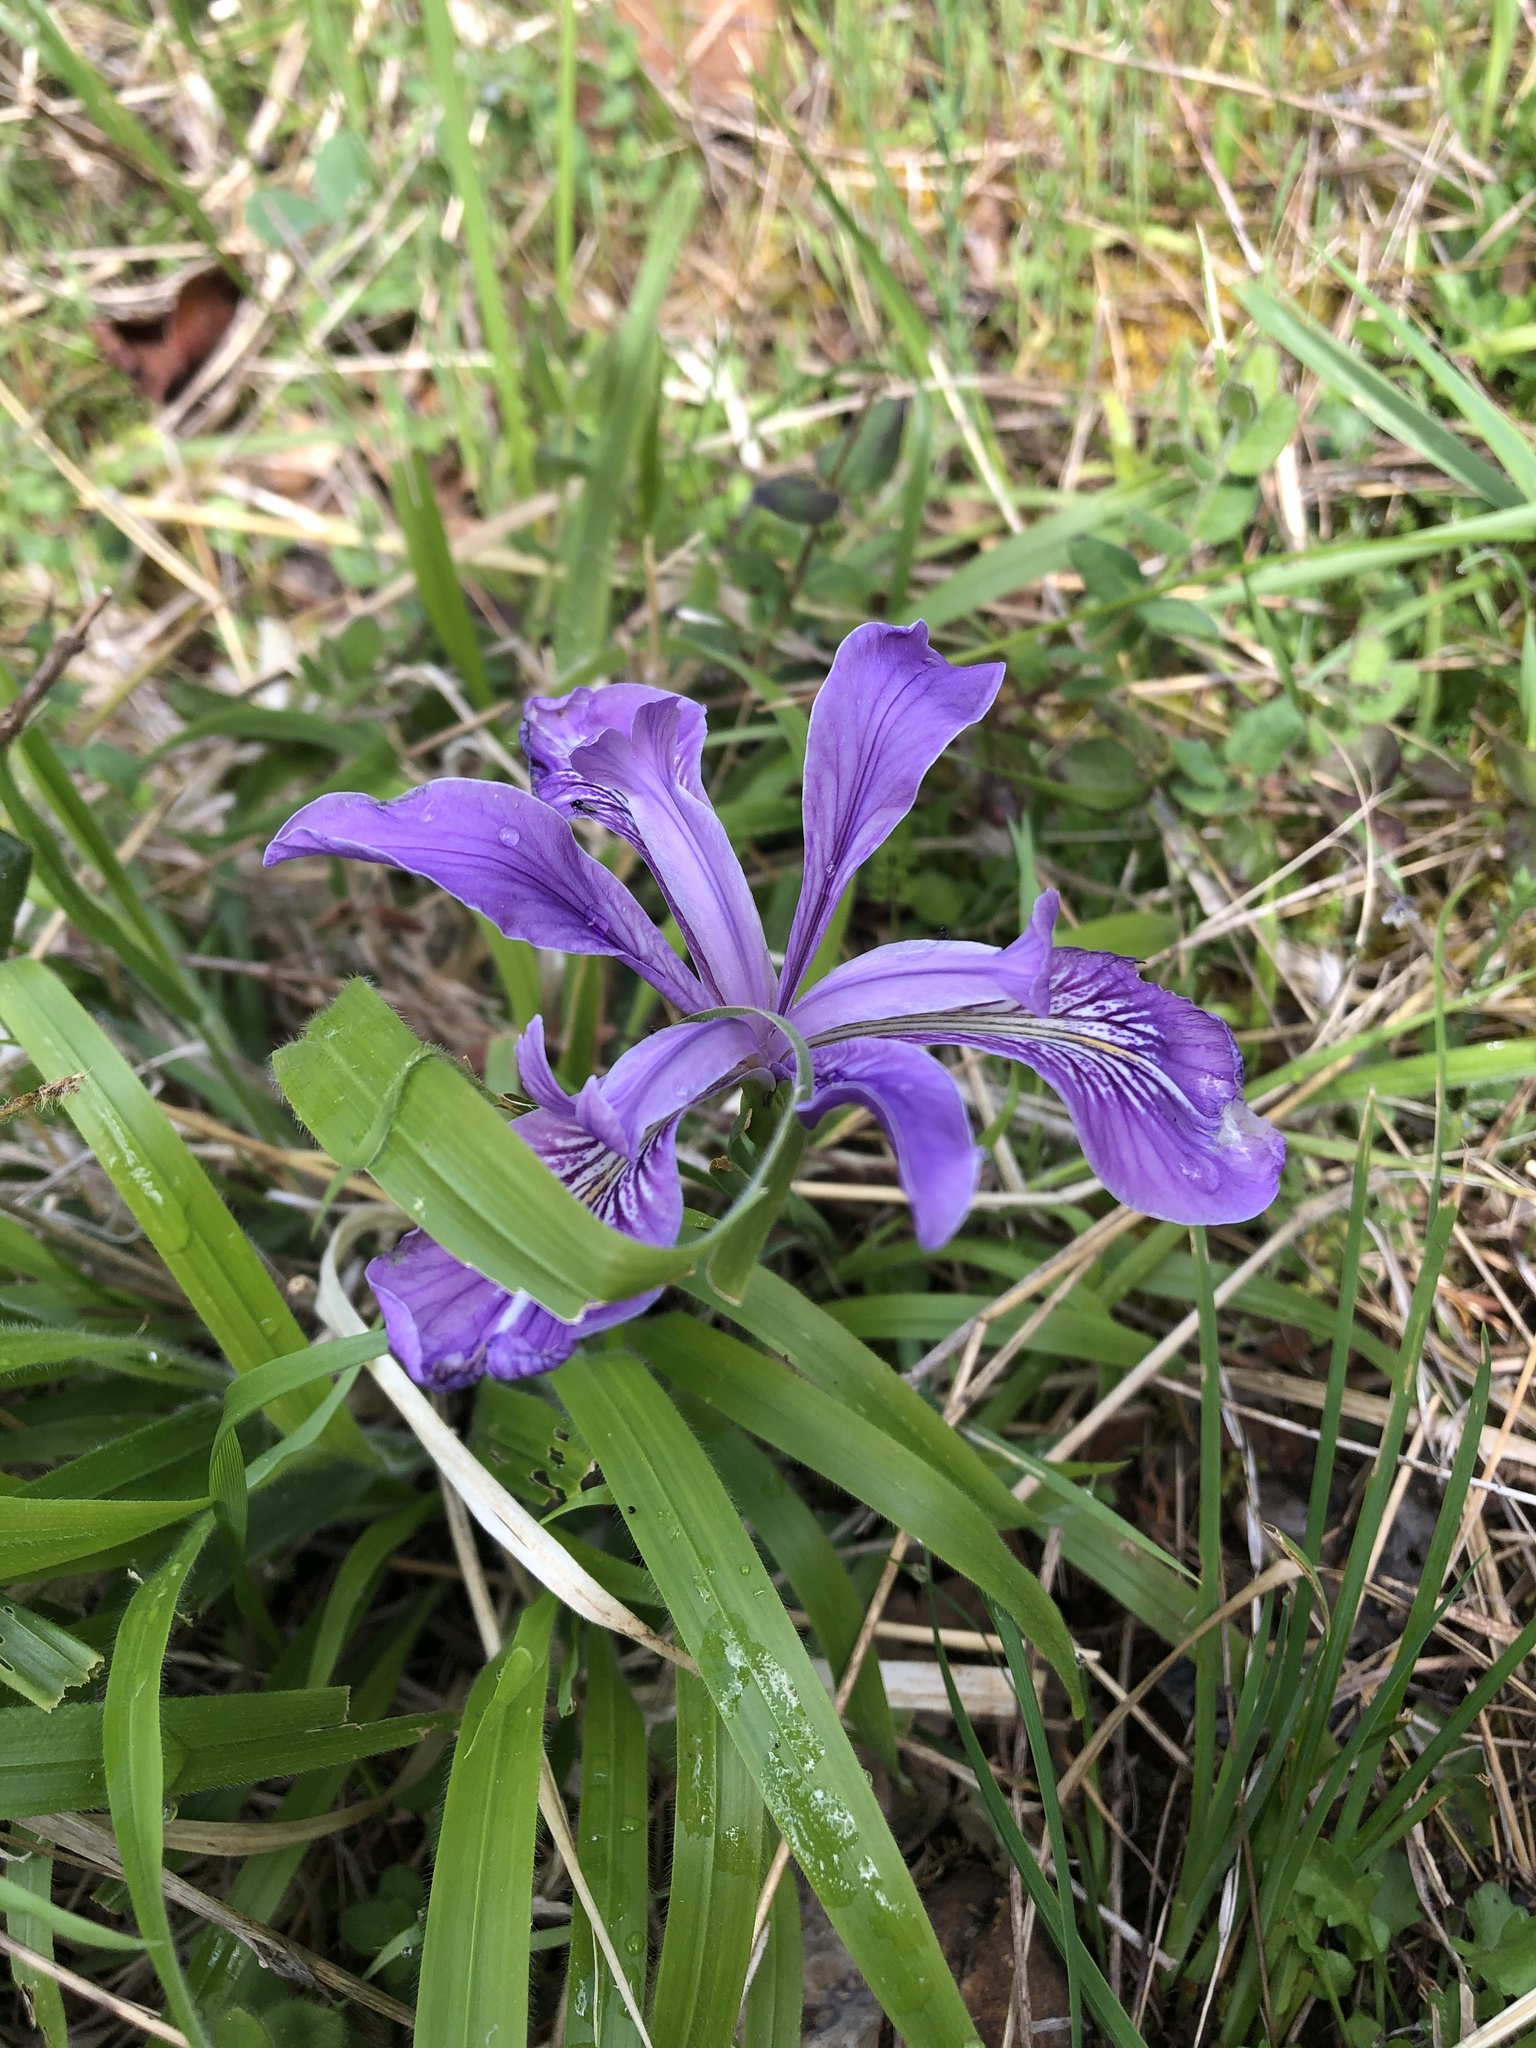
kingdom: Plantae
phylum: Tracheophyta
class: Liliopsida
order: Asparagales
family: Iridaceae
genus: Iris
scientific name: Iris douglasiana
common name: Marin iris
